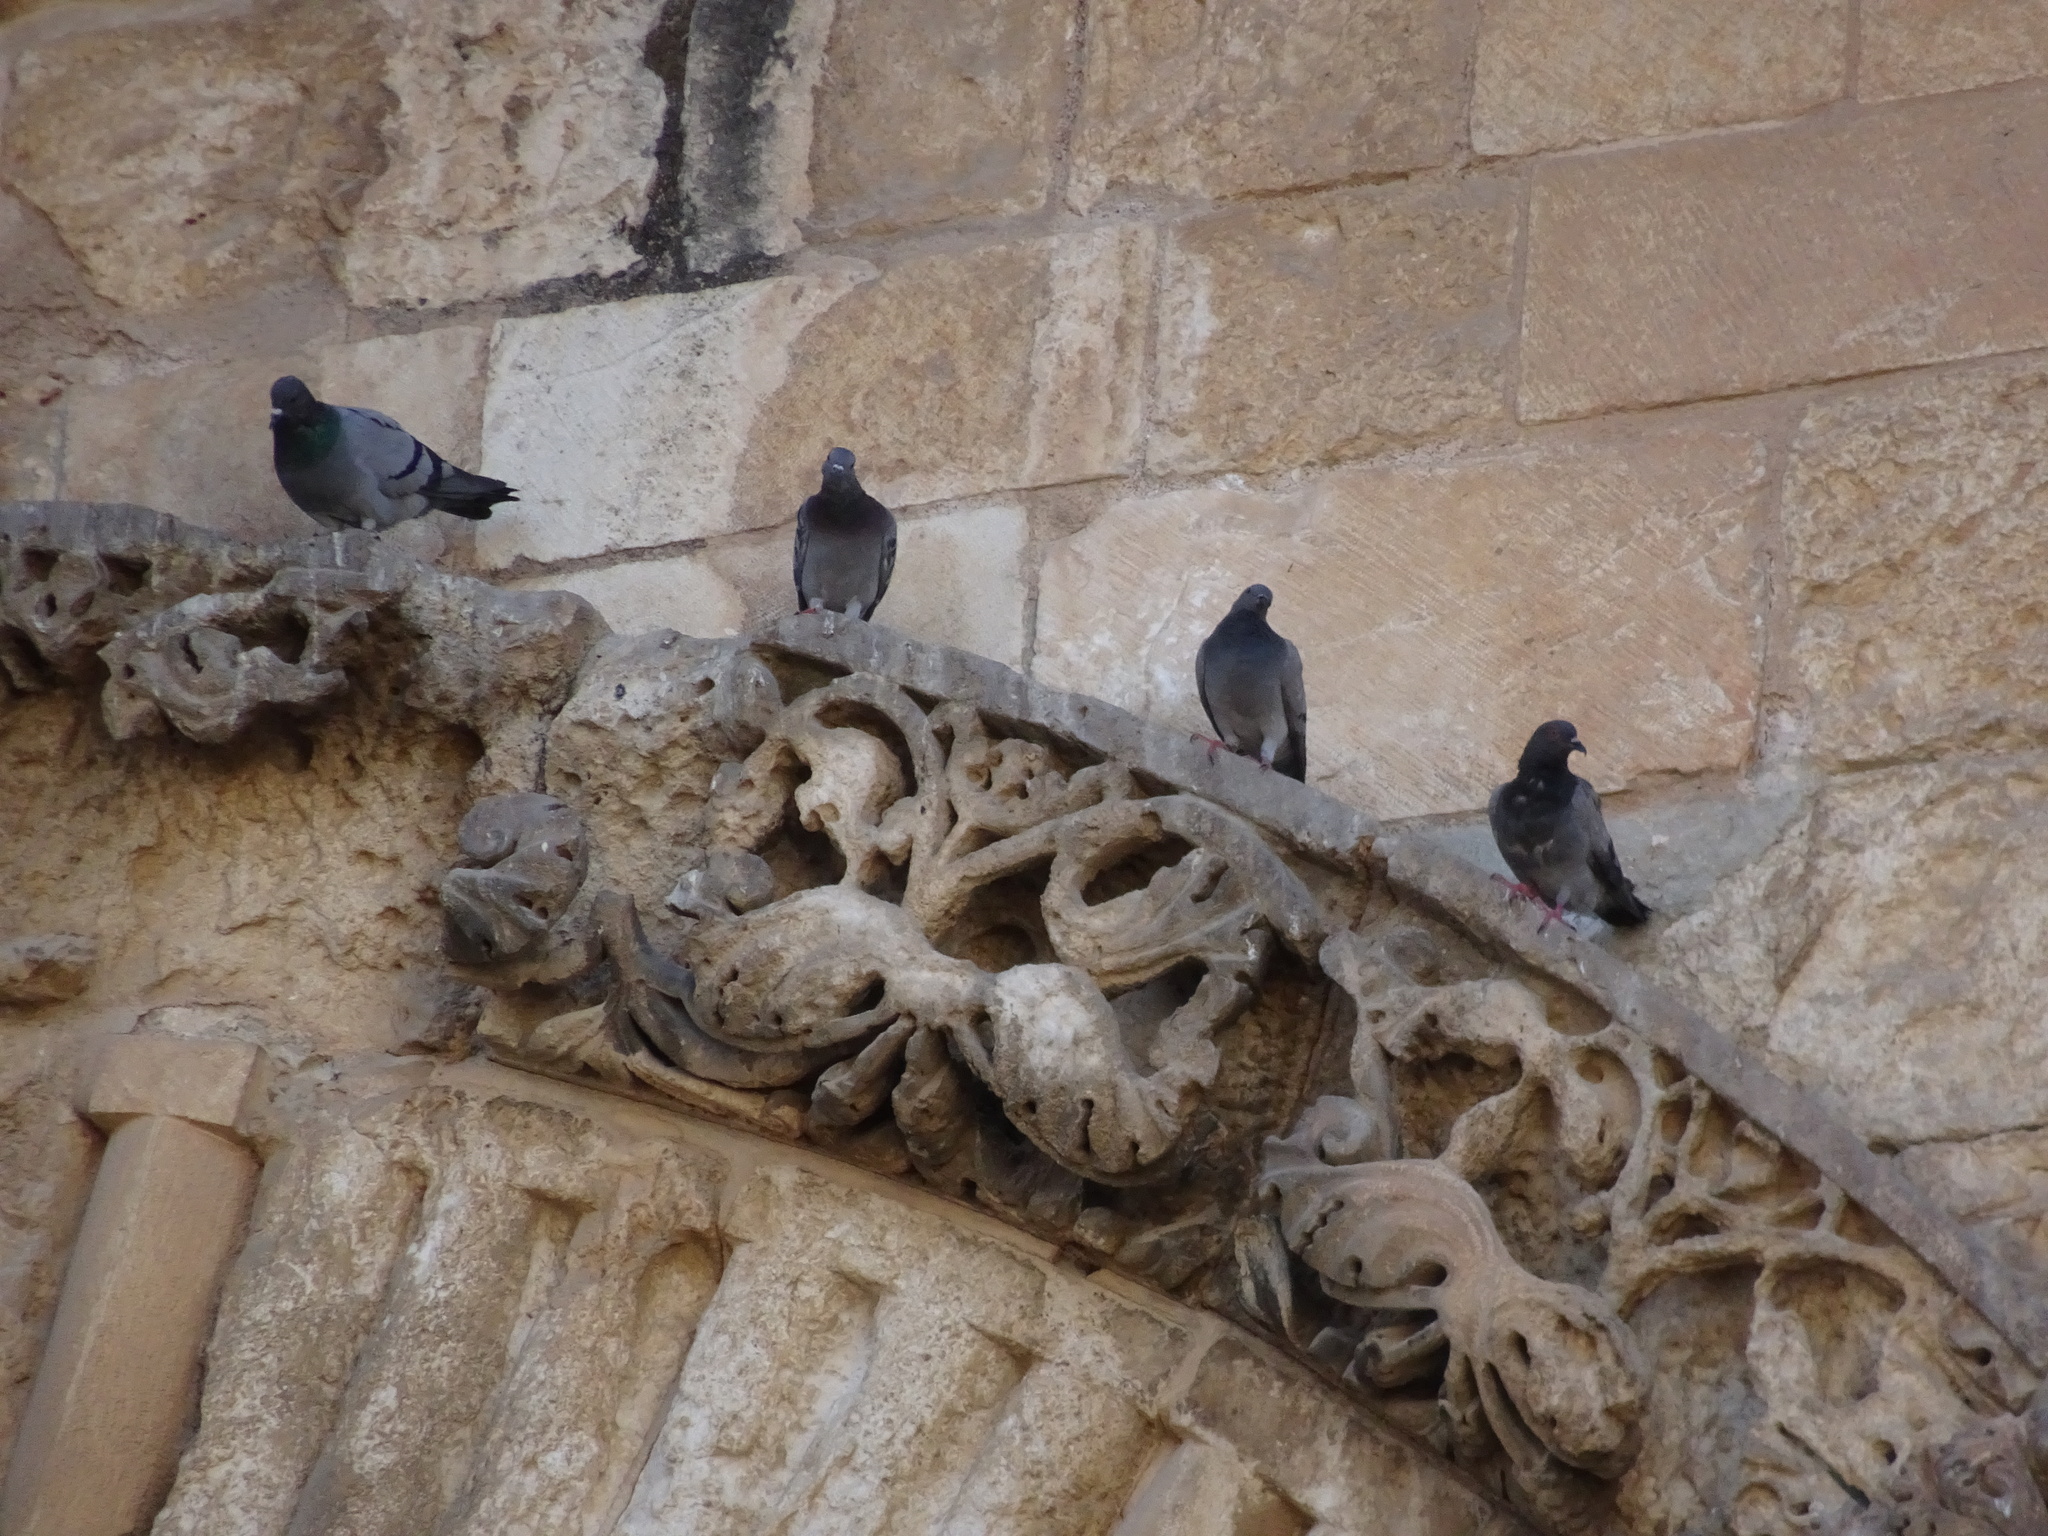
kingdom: Animalia
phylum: Chordata
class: Aves
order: Columbiformes
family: Columbidae
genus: Columba
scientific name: Columba livia
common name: Rock pigeon
